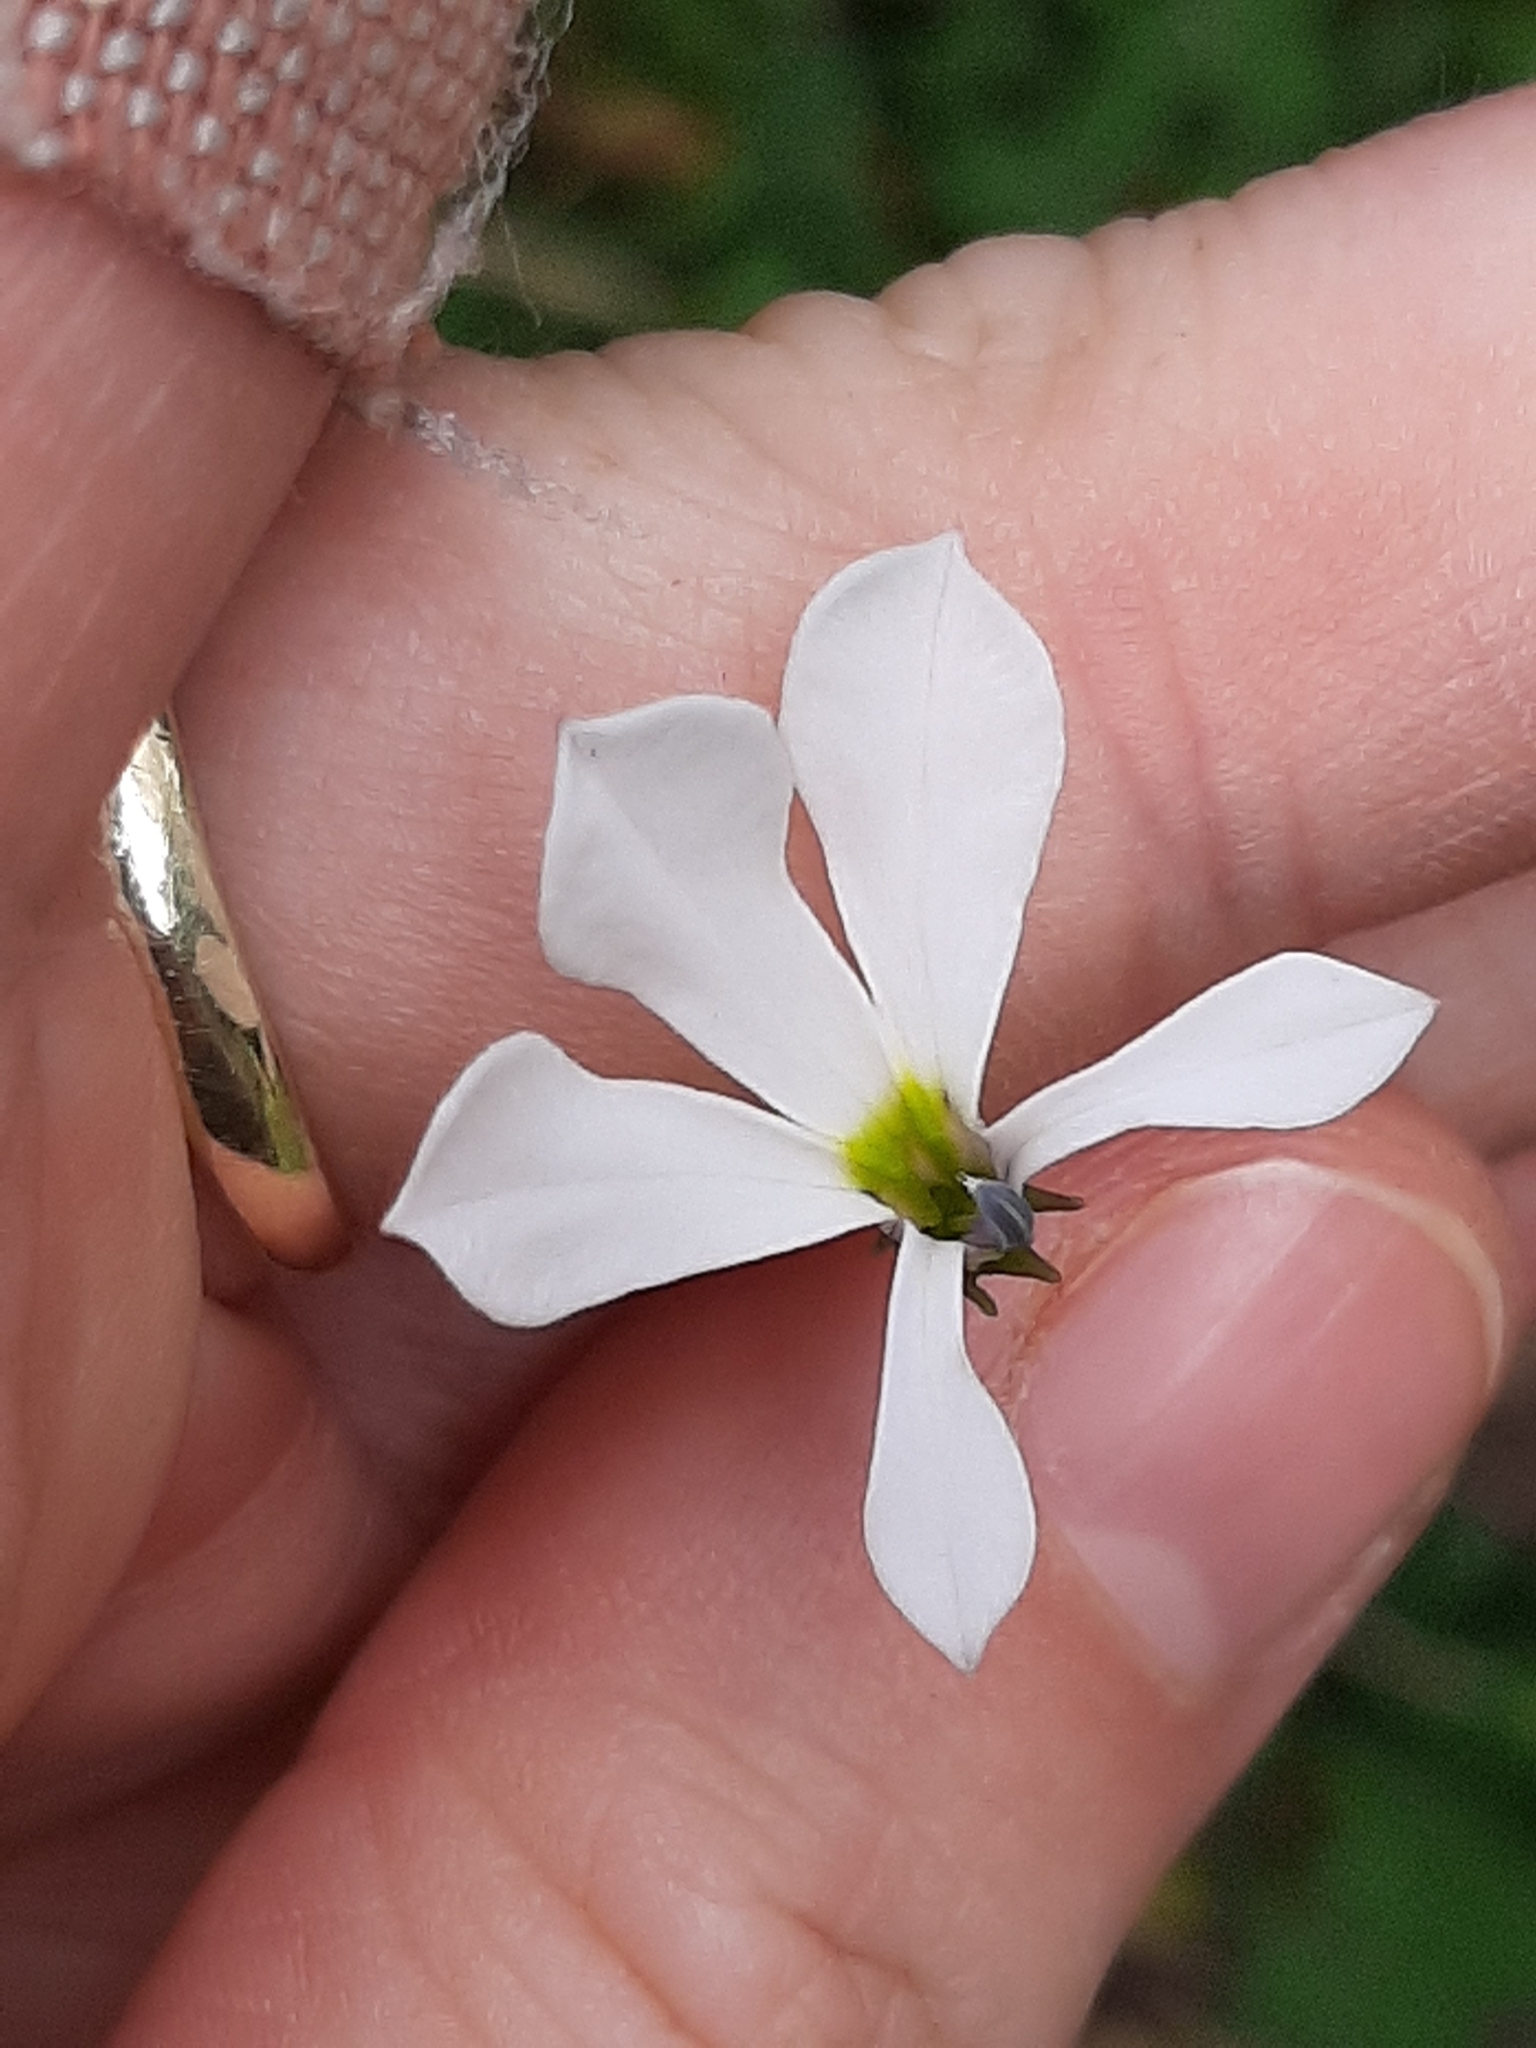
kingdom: Plantae
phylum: Tracheophyta
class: Magnoliopsida
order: Asterales
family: Campanulaceae
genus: Lobelia
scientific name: Lobelia angulata
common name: Lawn lobelia
